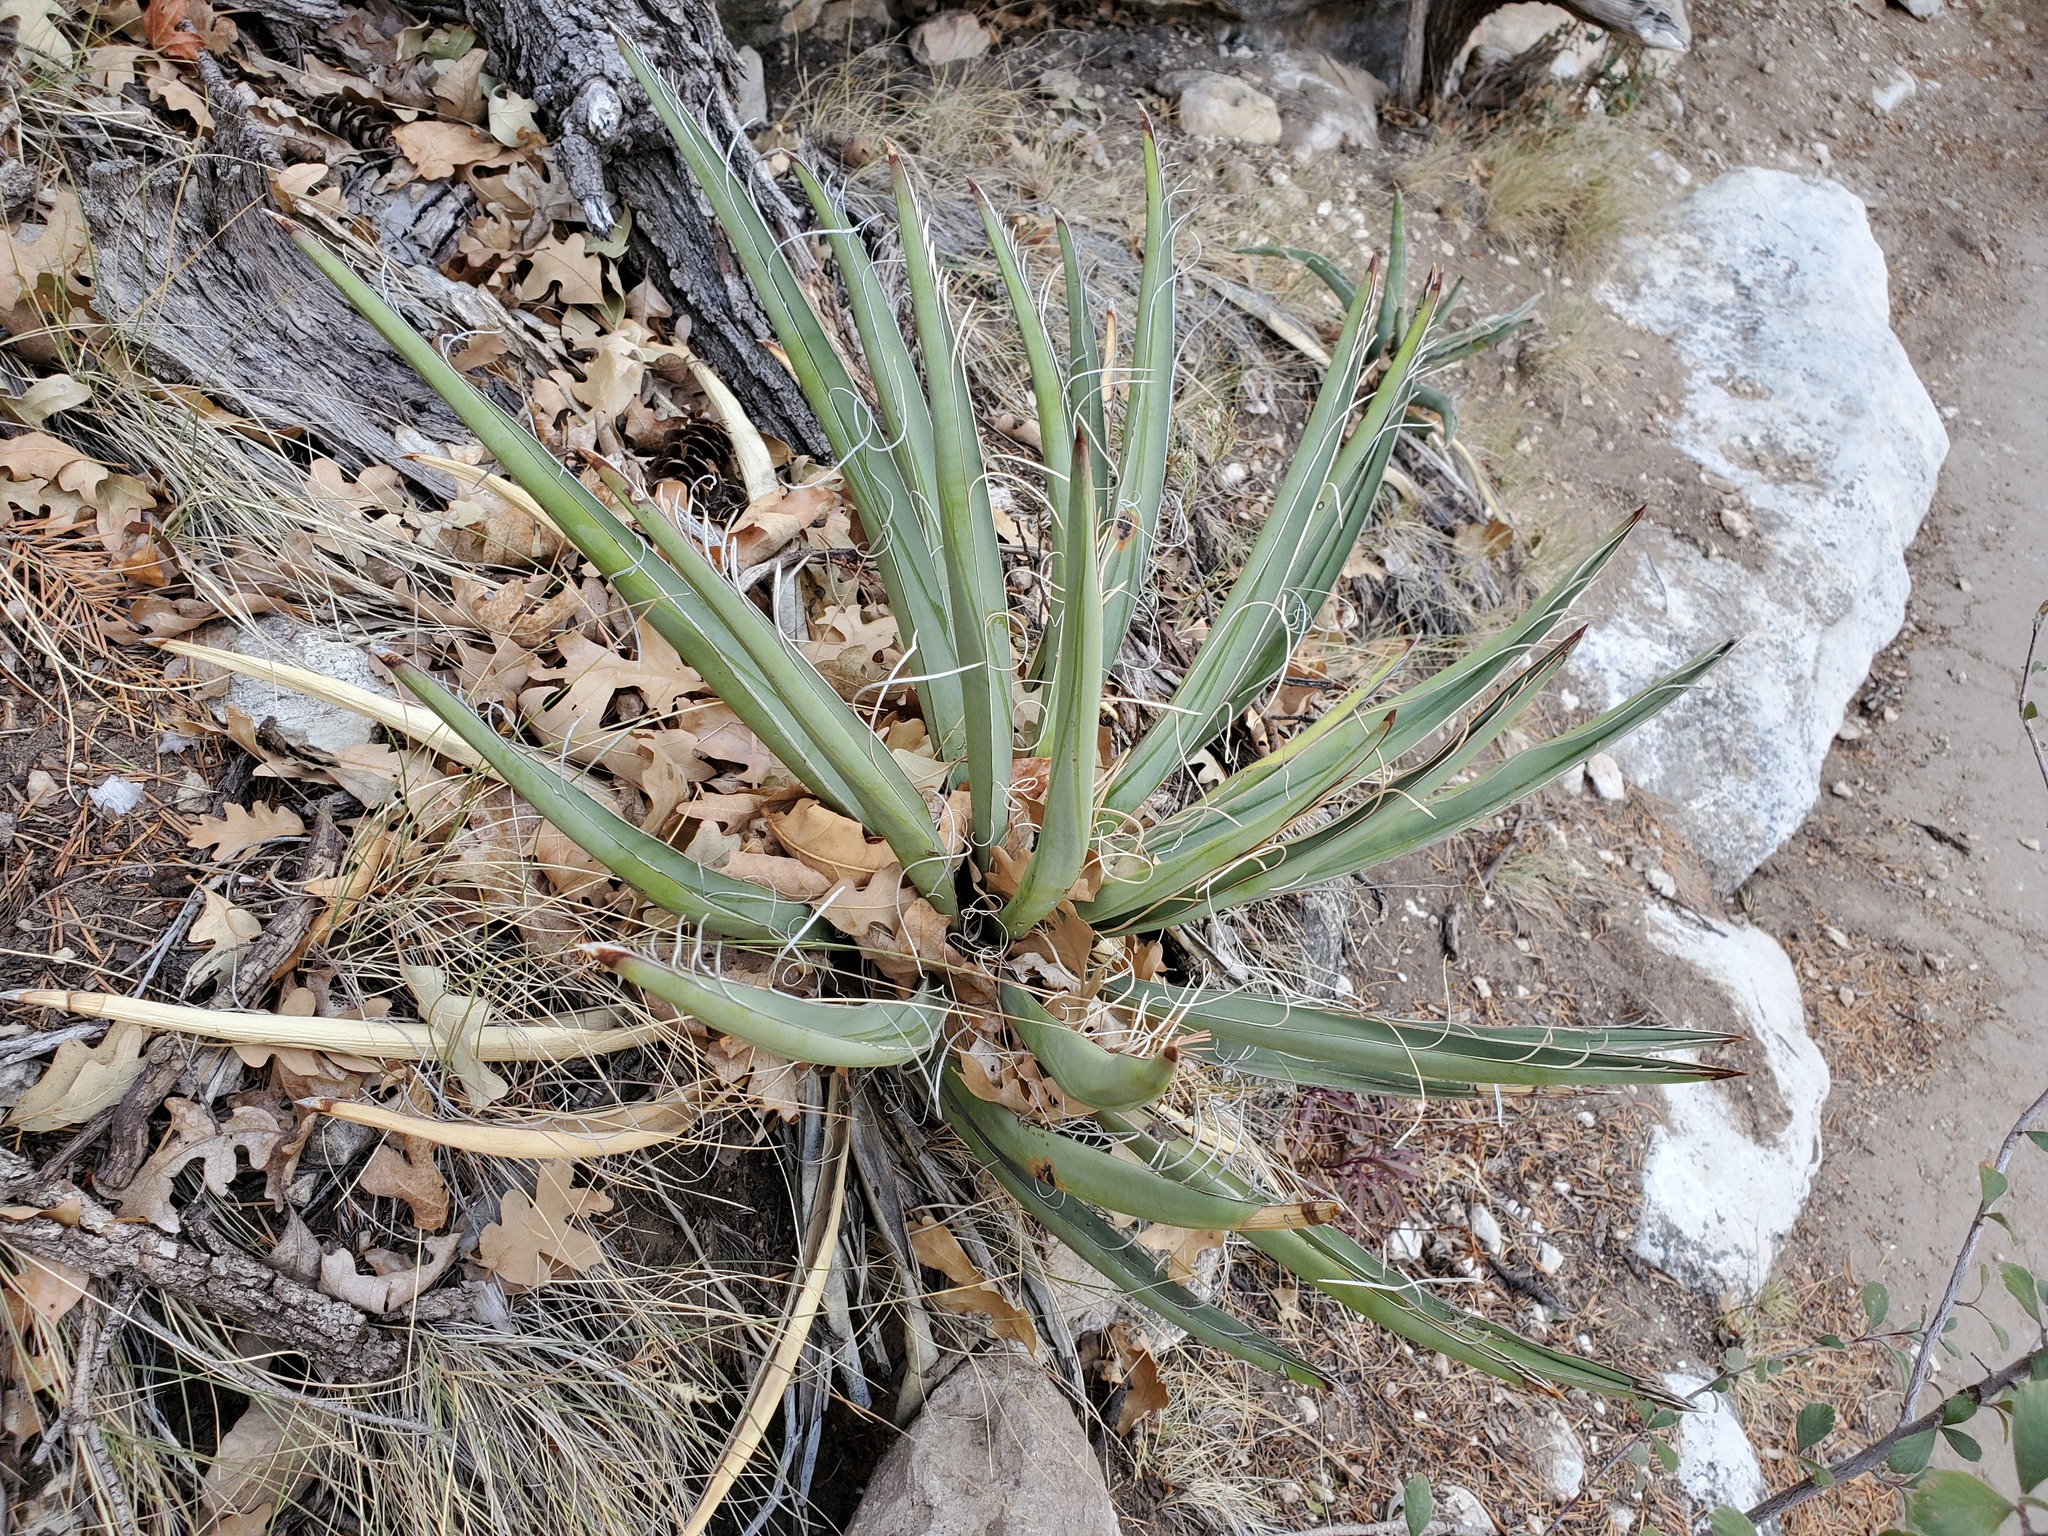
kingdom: Plantae
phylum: Tracheophyta
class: Liliopsida
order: Asparagales
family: Asparagaceae
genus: Yucca
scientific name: Yucca baccata
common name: Banana yucca
